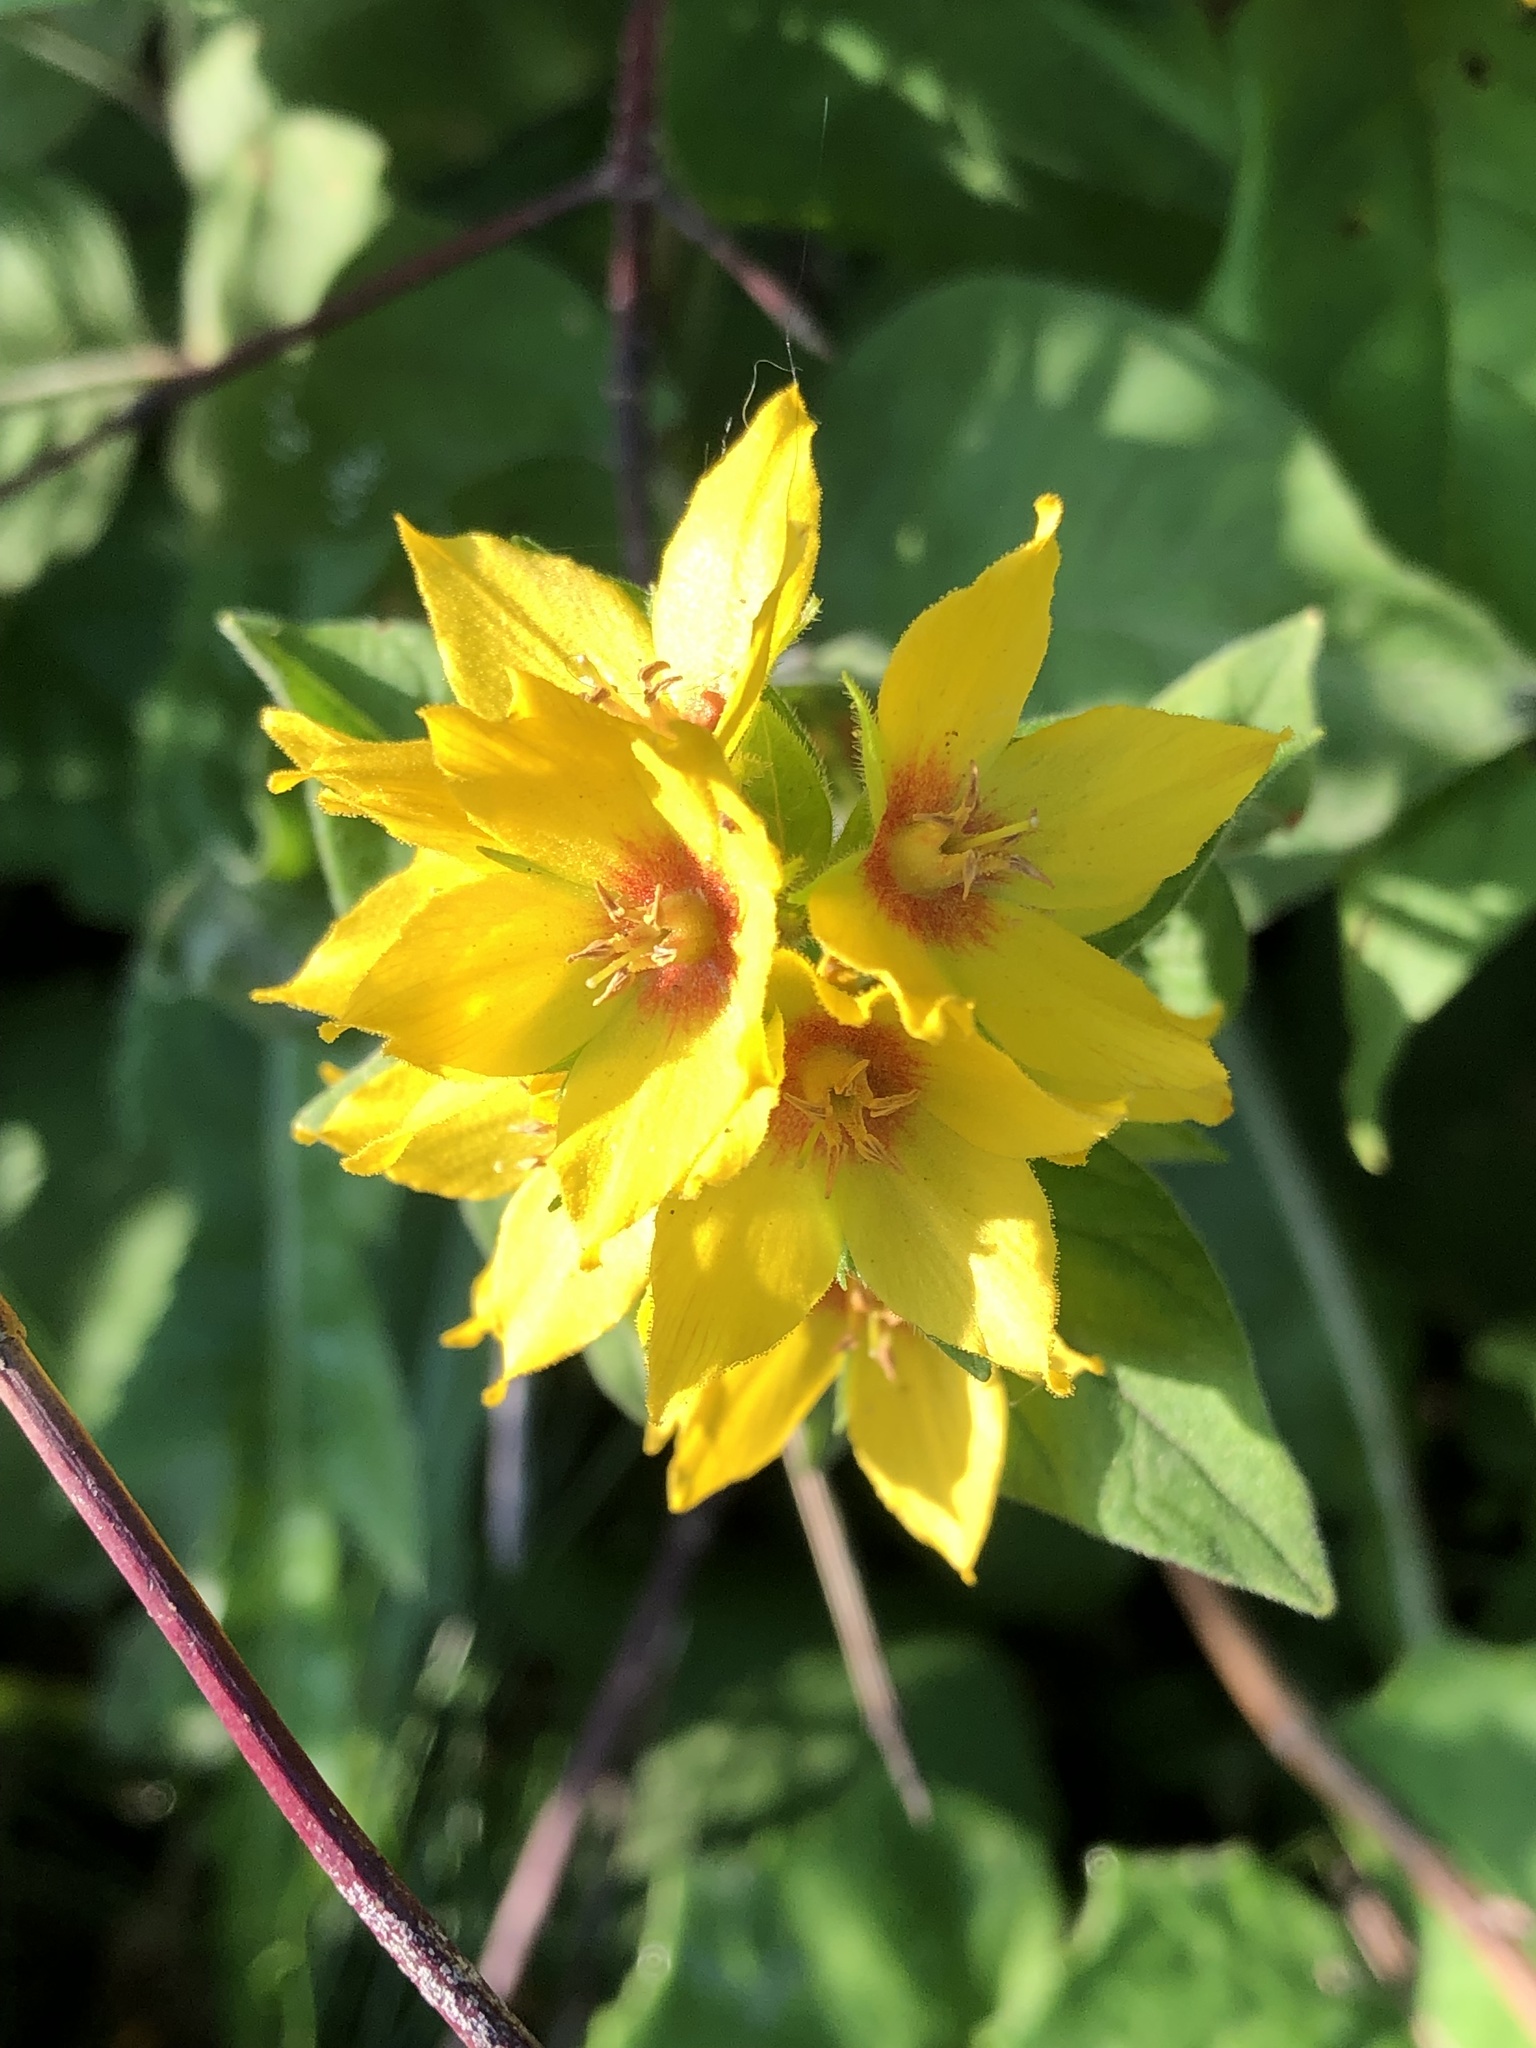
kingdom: Plantae
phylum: Tracheophyta
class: Magnoliopsida
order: Ericales
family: Primulaceae
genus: Lysimachia
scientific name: Lysimachia punctata
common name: Dotted loosestrife
